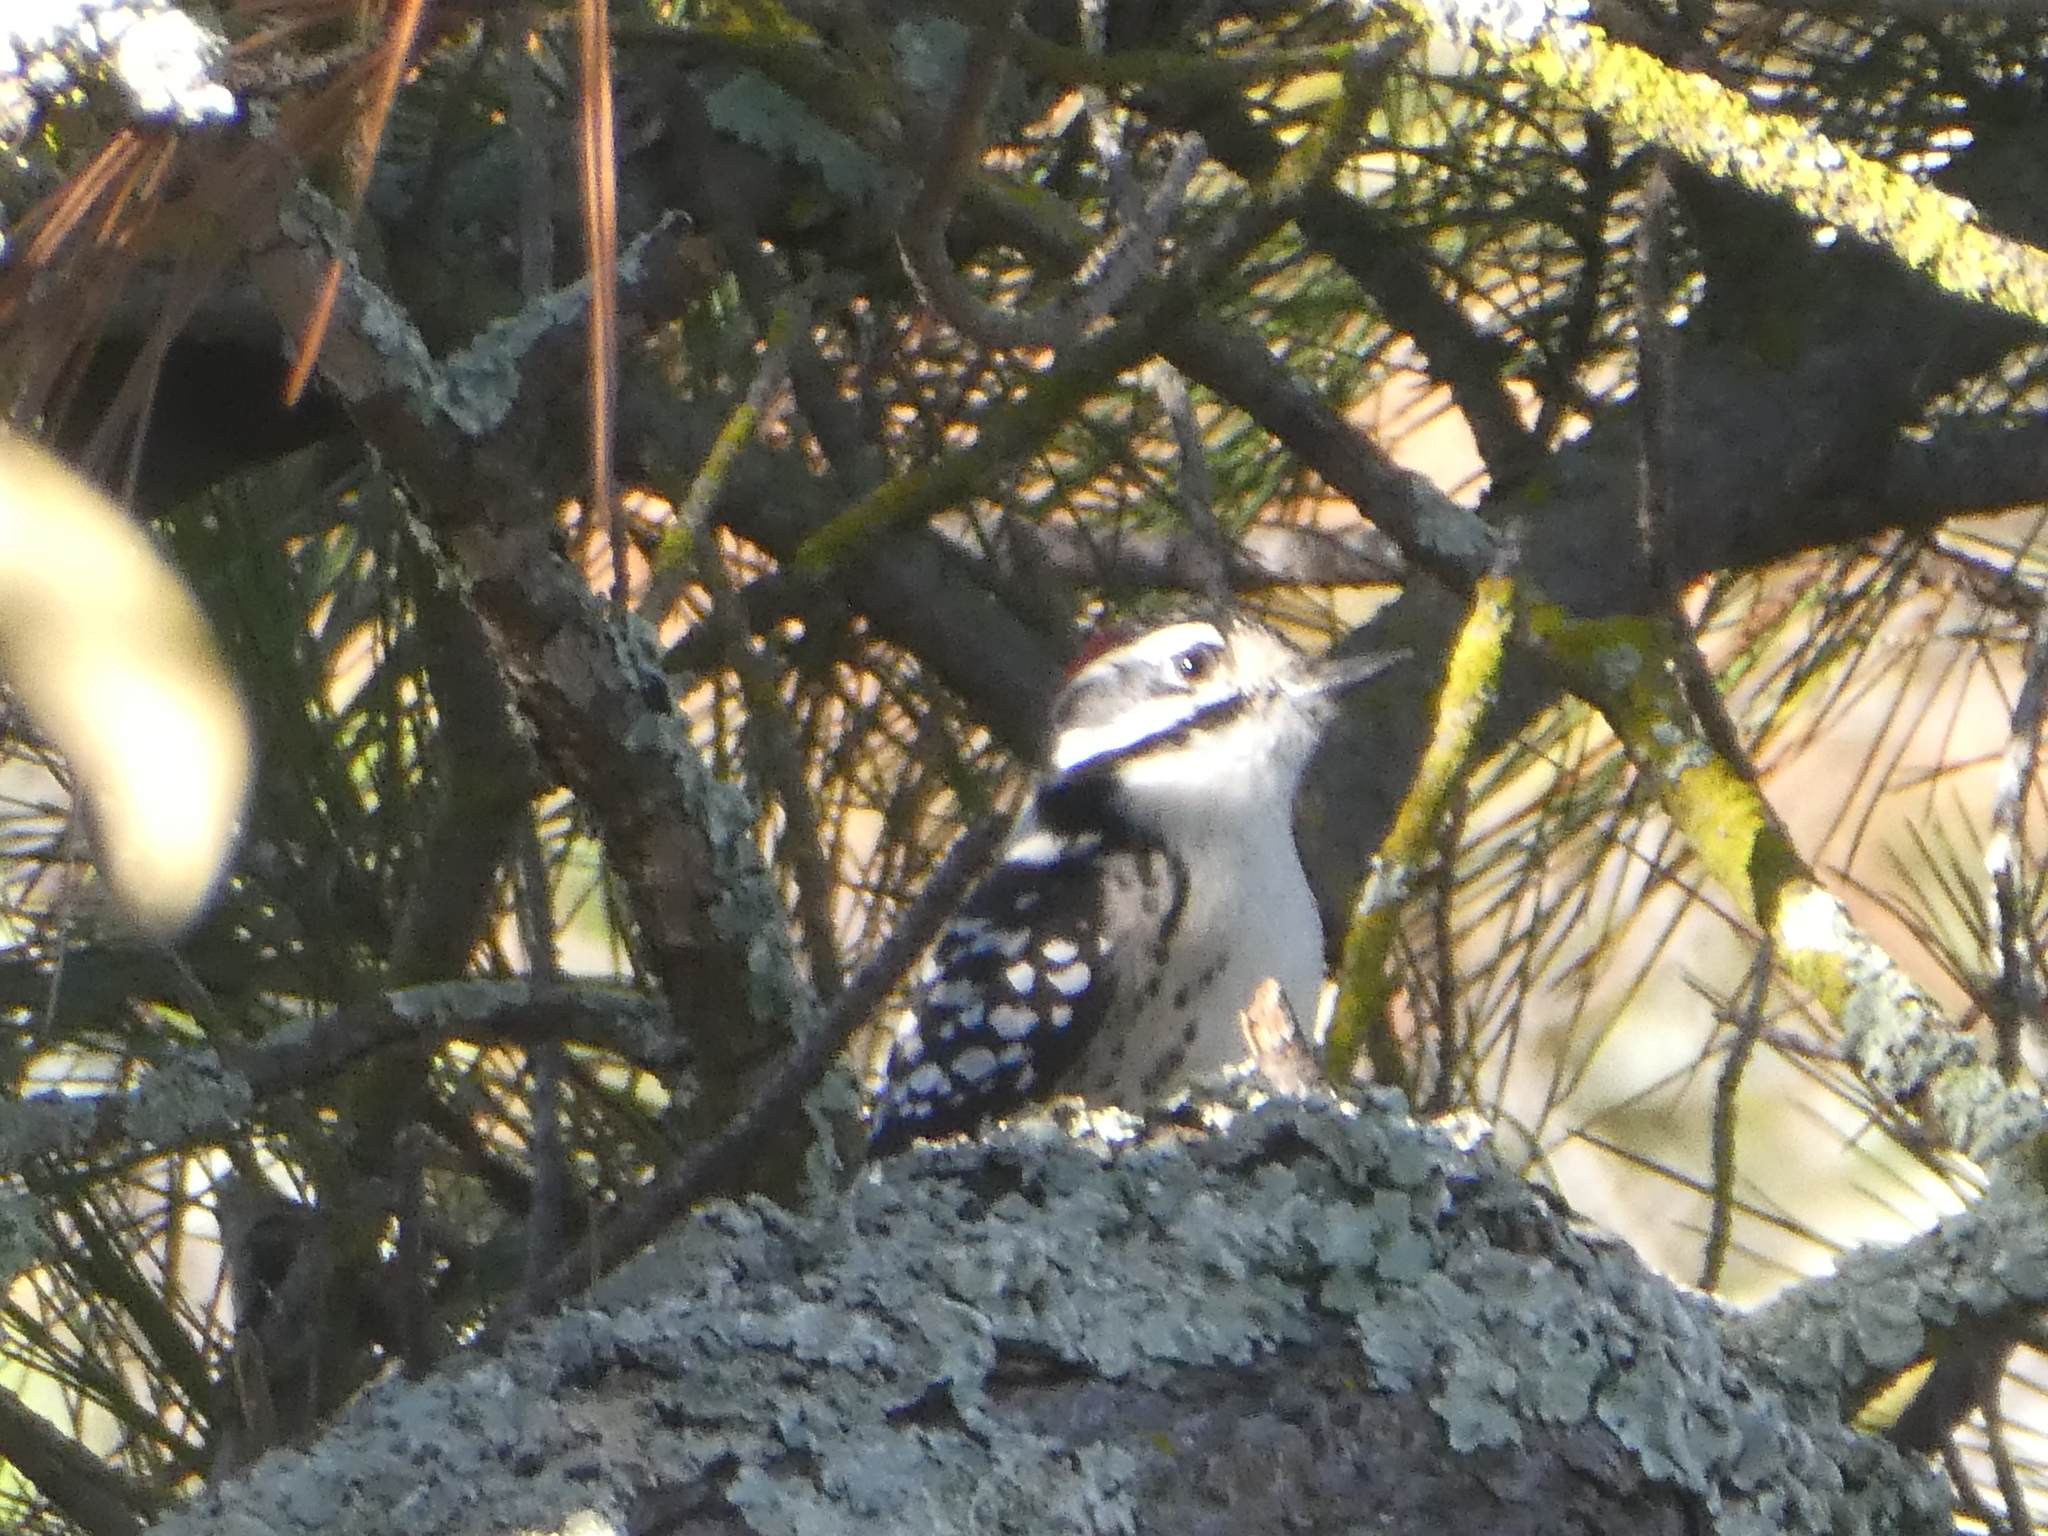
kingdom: Animalia
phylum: Chordata
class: Aves
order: Piciformes
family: Picidae
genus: Dryobates
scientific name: Dryobates nuttallii
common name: Nuttall's woodpecker
